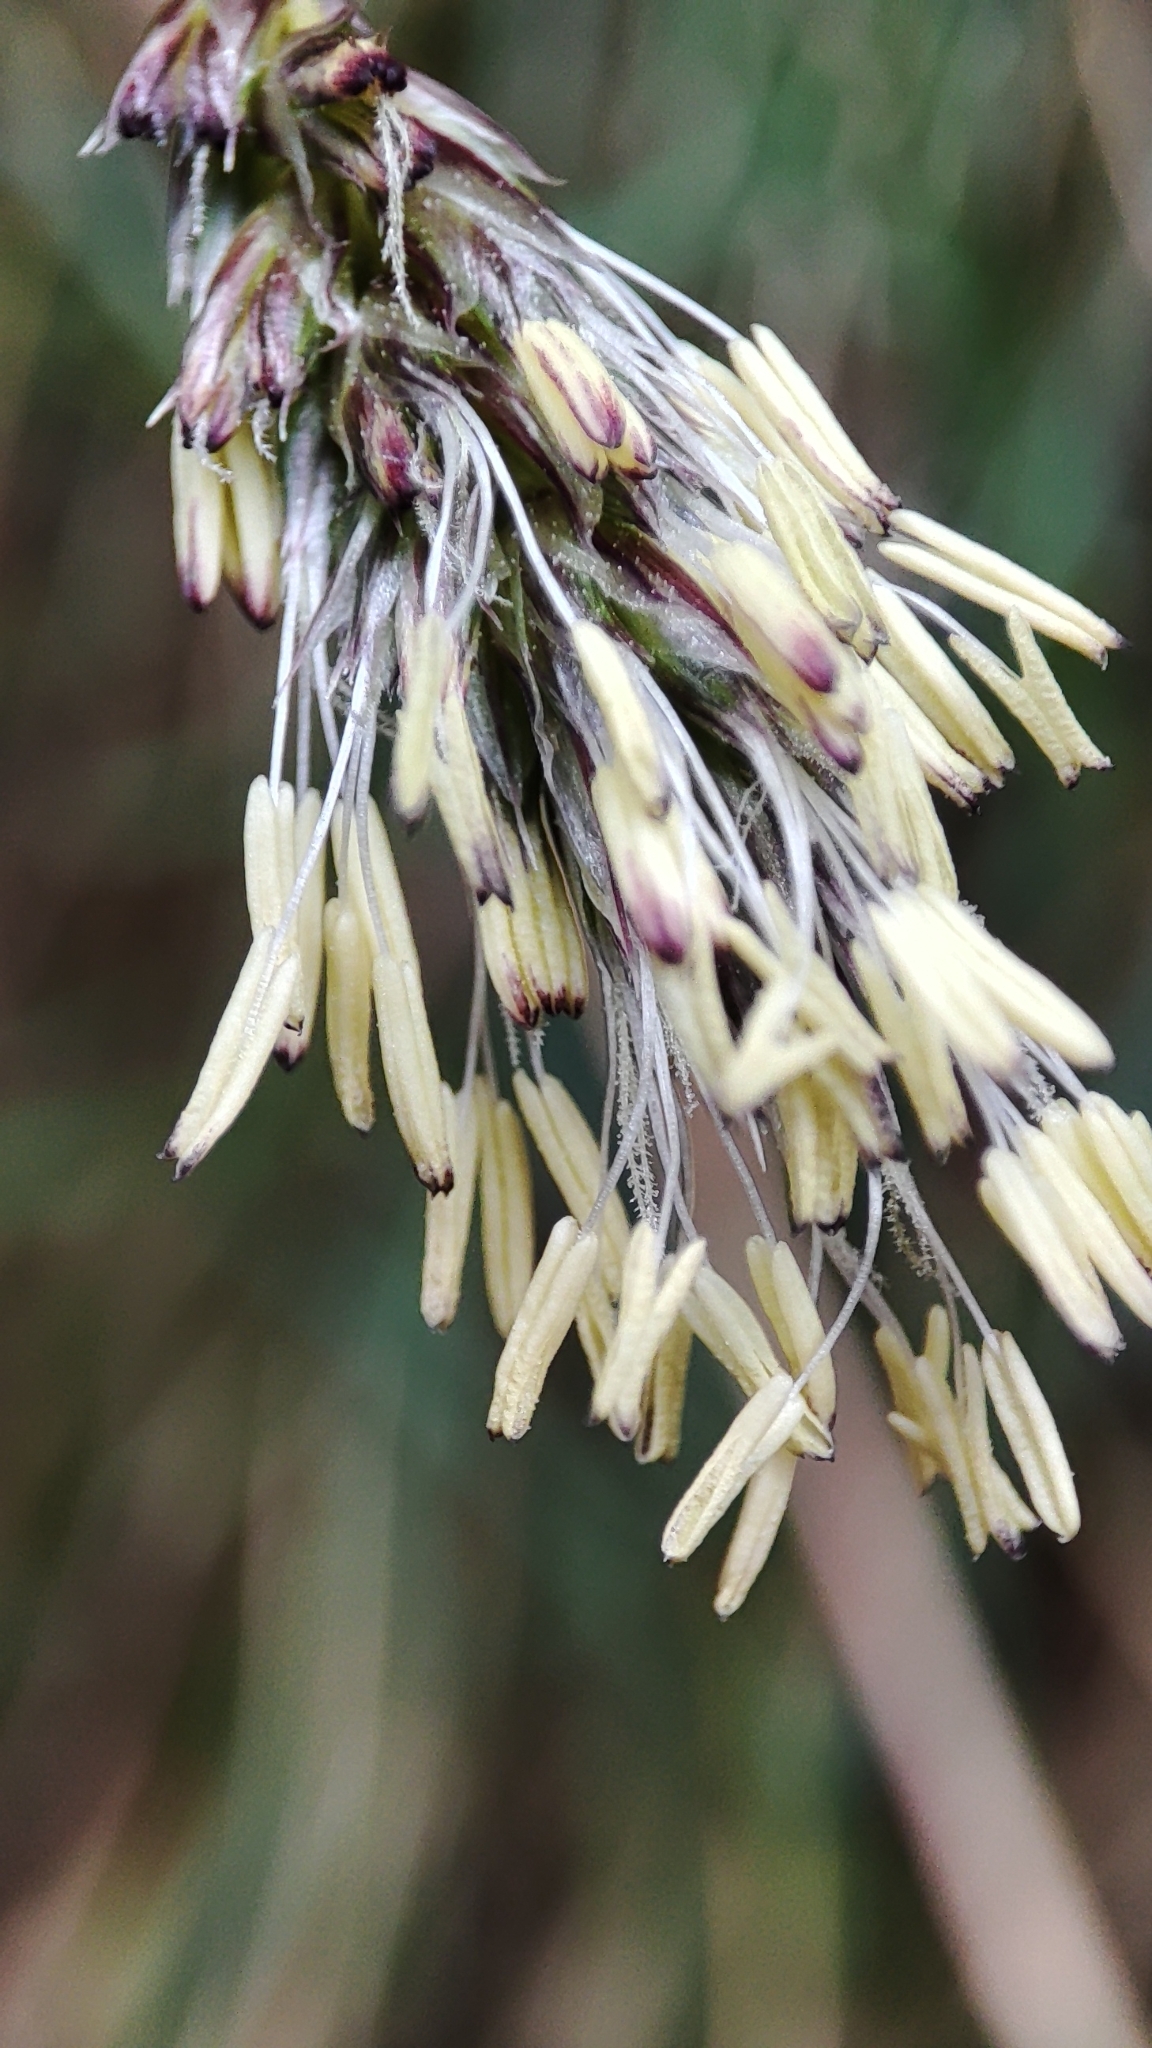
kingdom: Plantae
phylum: Tracheophyta
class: Liliopsida
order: Poales
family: Poaceae
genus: Sesleria
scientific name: Sesleria caerulea
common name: Blue moor-grass
